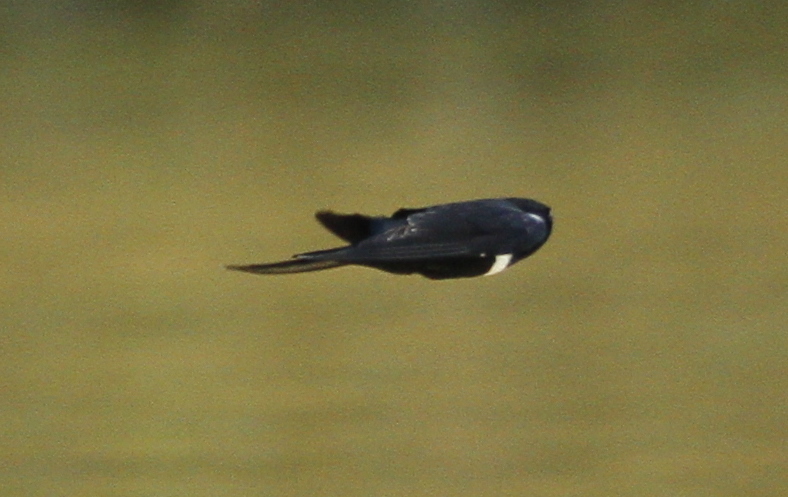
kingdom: Animalia
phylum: Chordata
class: Aves
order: Passeriformes
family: Hirundinidae
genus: Atticora
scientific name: Atticora fasciata
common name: White-banded swallow
